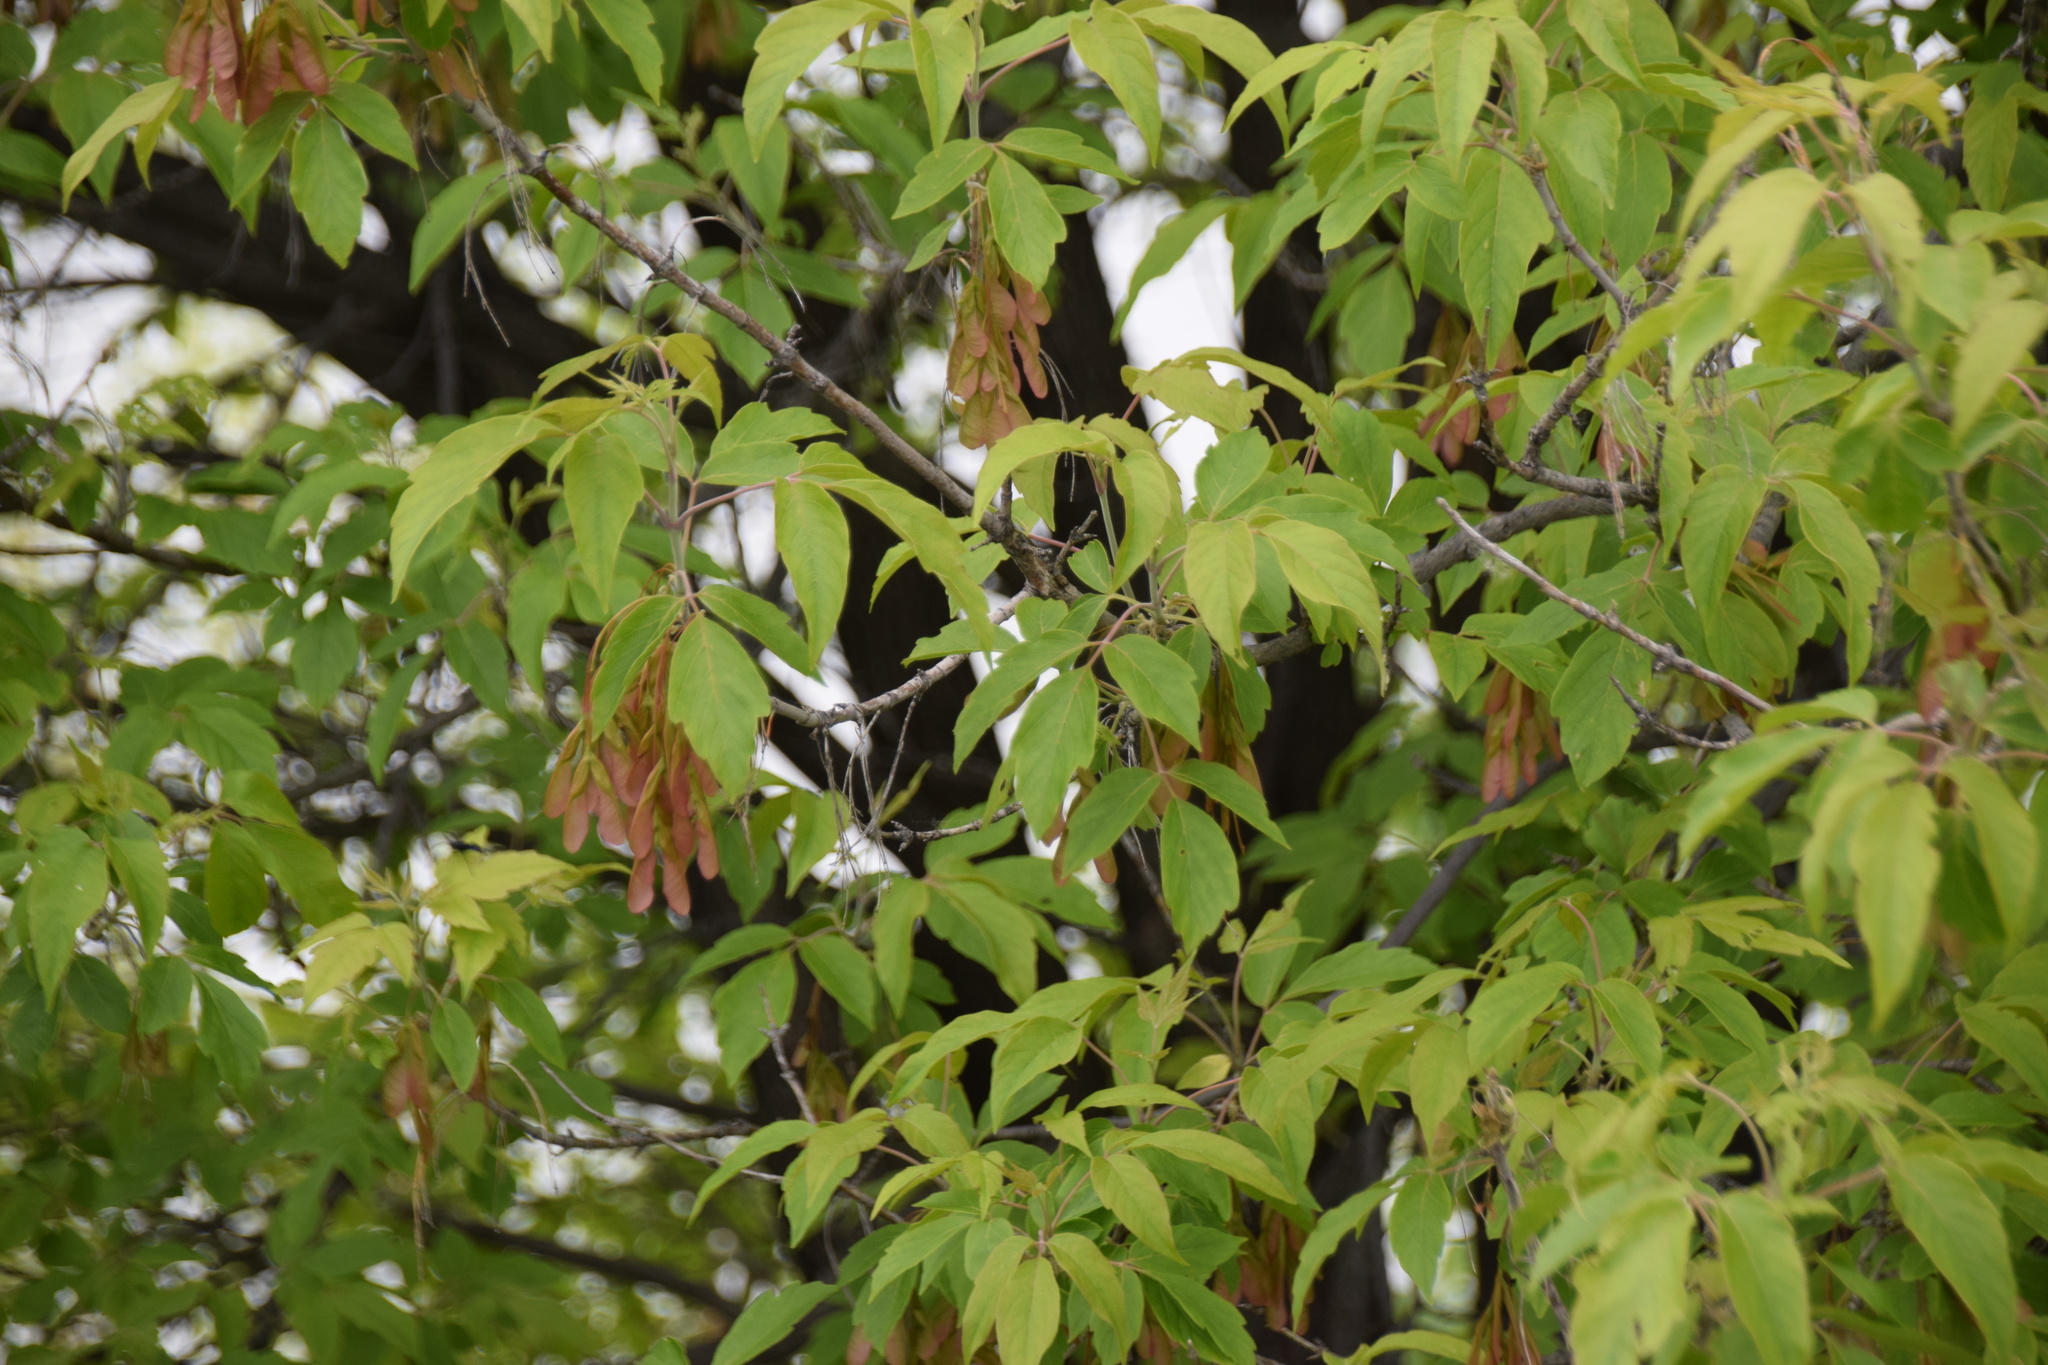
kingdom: Plantae
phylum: Tracheophyta
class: Magnoliopsida
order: Sapindales
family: Sapindaceae
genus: Acer
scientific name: Acer negundo
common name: Ashleaf maple
